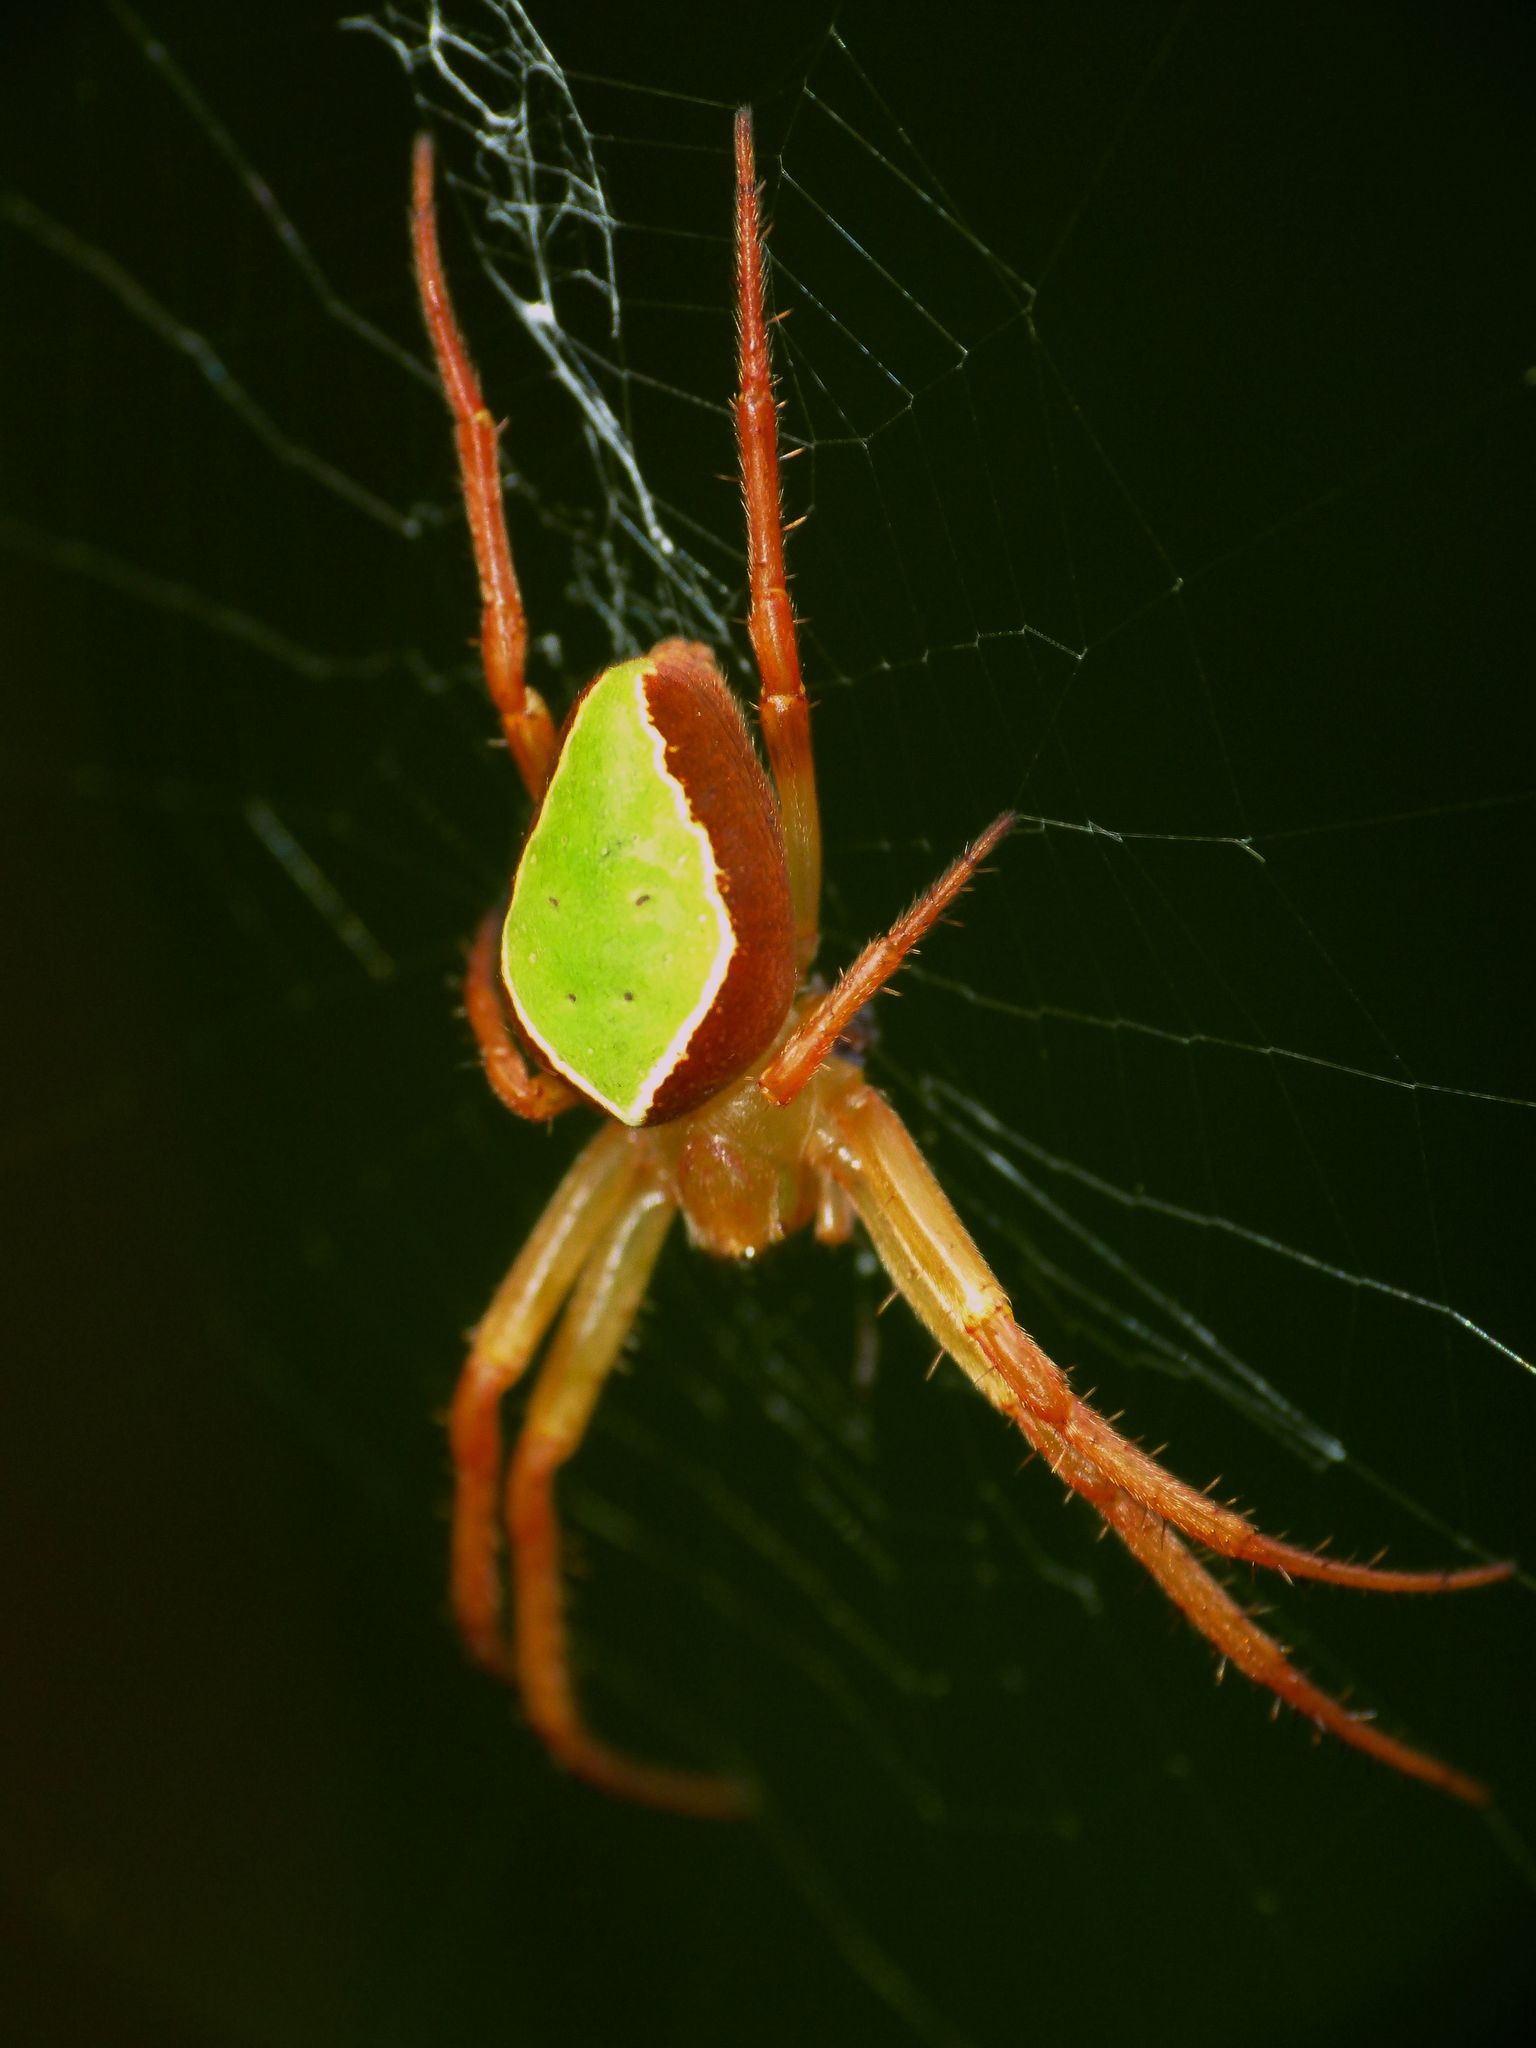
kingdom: Animalia
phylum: Arthropoda
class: Arachnida
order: Araneae
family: Araneidae
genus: Colaranea
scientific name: Colaranea viriditas
